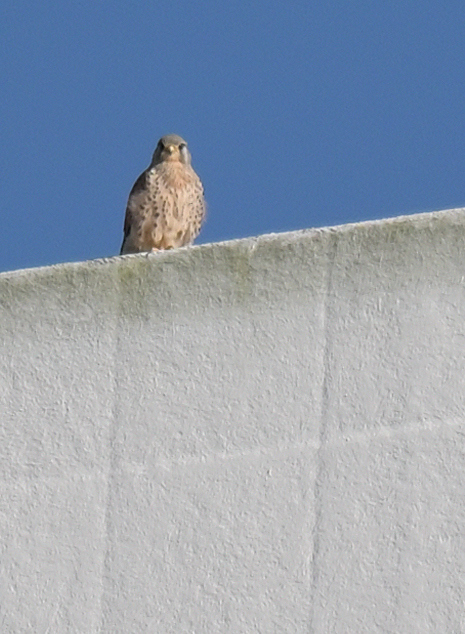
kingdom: Animalia
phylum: Chordata
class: Aves
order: Falconiformes
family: Falconidae
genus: Falco
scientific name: Falco tinnunculus
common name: Common kestrel
